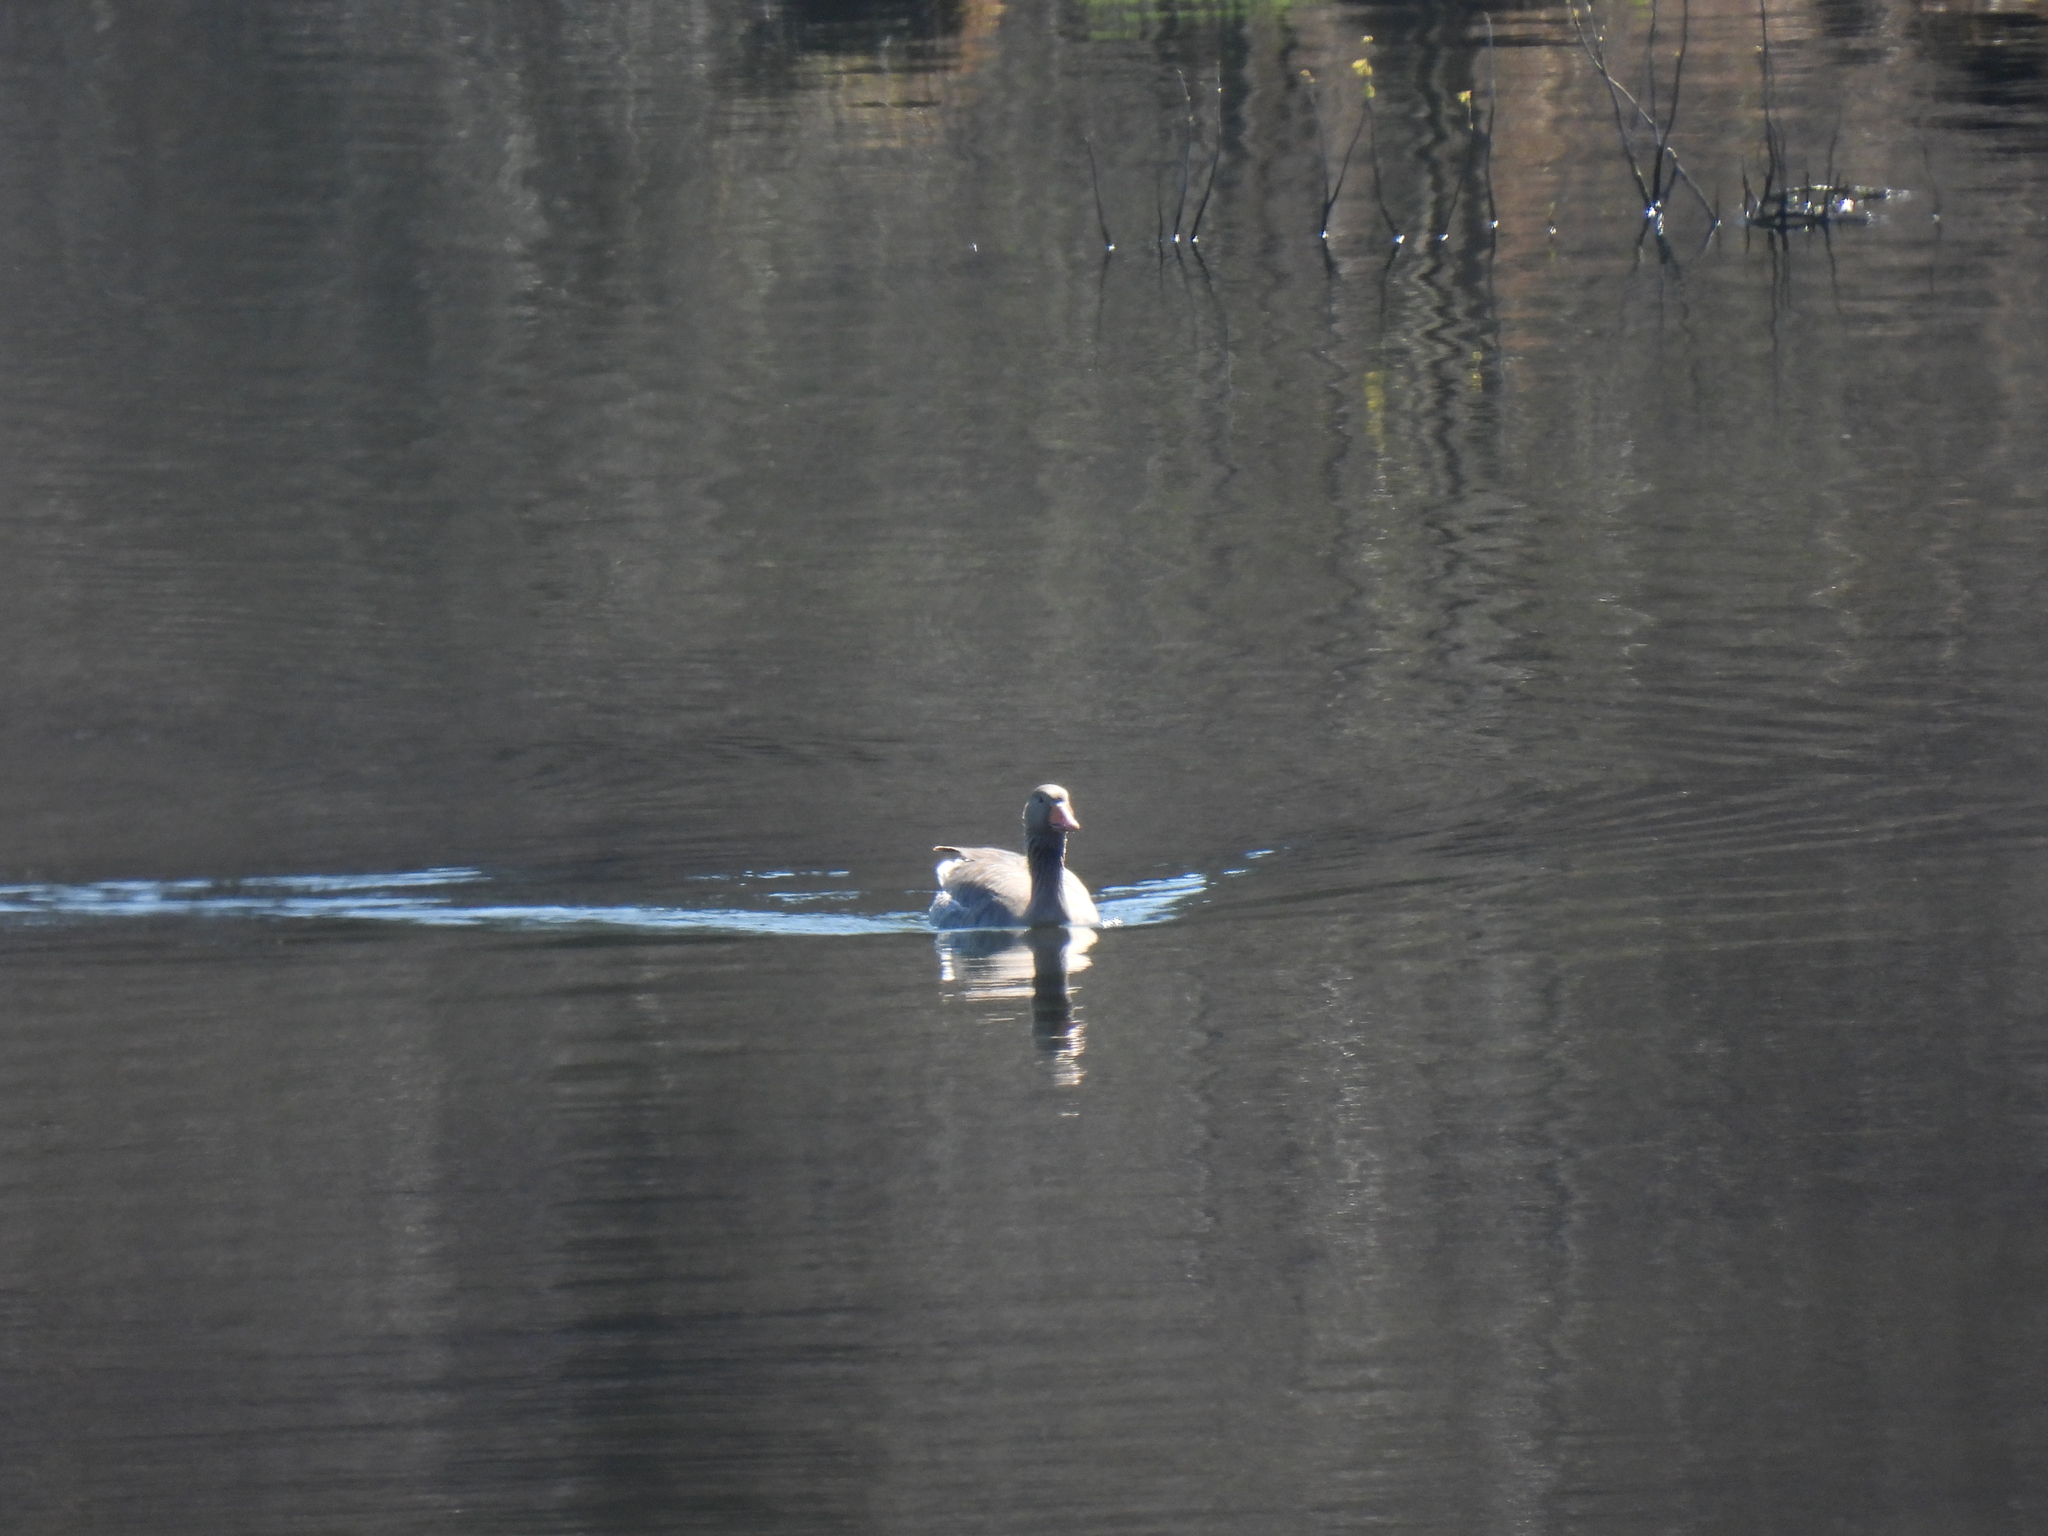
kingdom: Animalia
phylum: Chordata
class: Aves
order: Anseriformes
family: Anatidae
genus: Anser
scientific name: Anser anser
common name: Greylag goose
